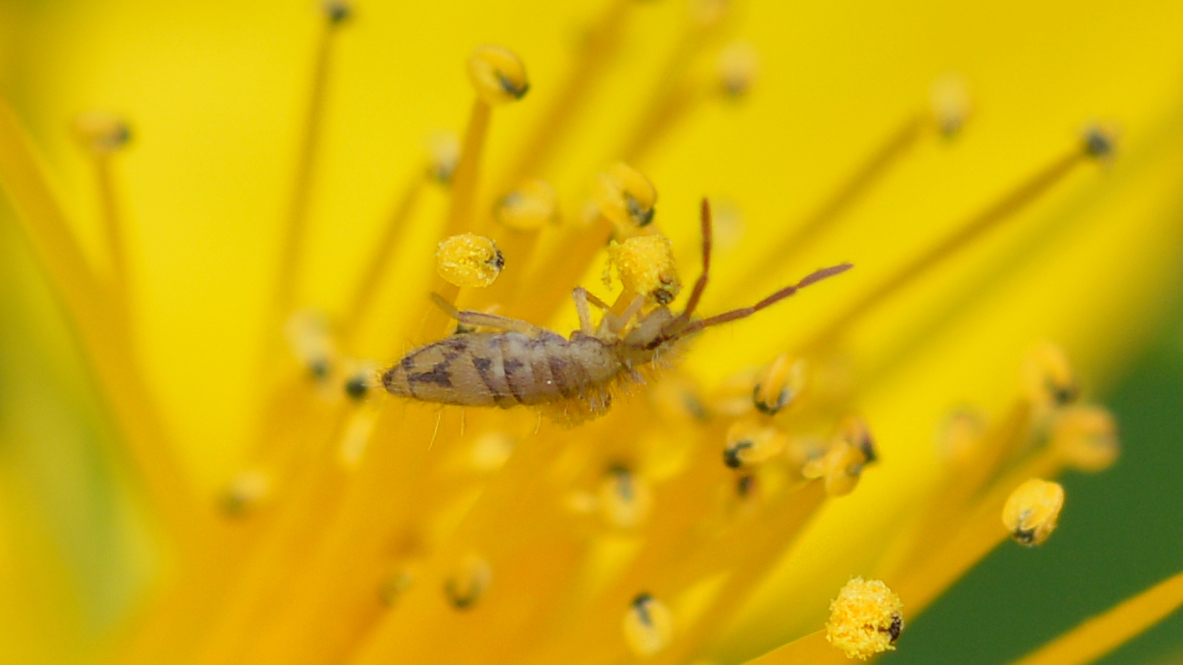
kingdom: Animalia
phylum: Arthropoda
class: Collembola
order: Entomobryomorpha
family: Entomobryidae
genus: Entomobrya
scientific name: Entomobrya nivalis
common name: Cosmopolitan springtail
